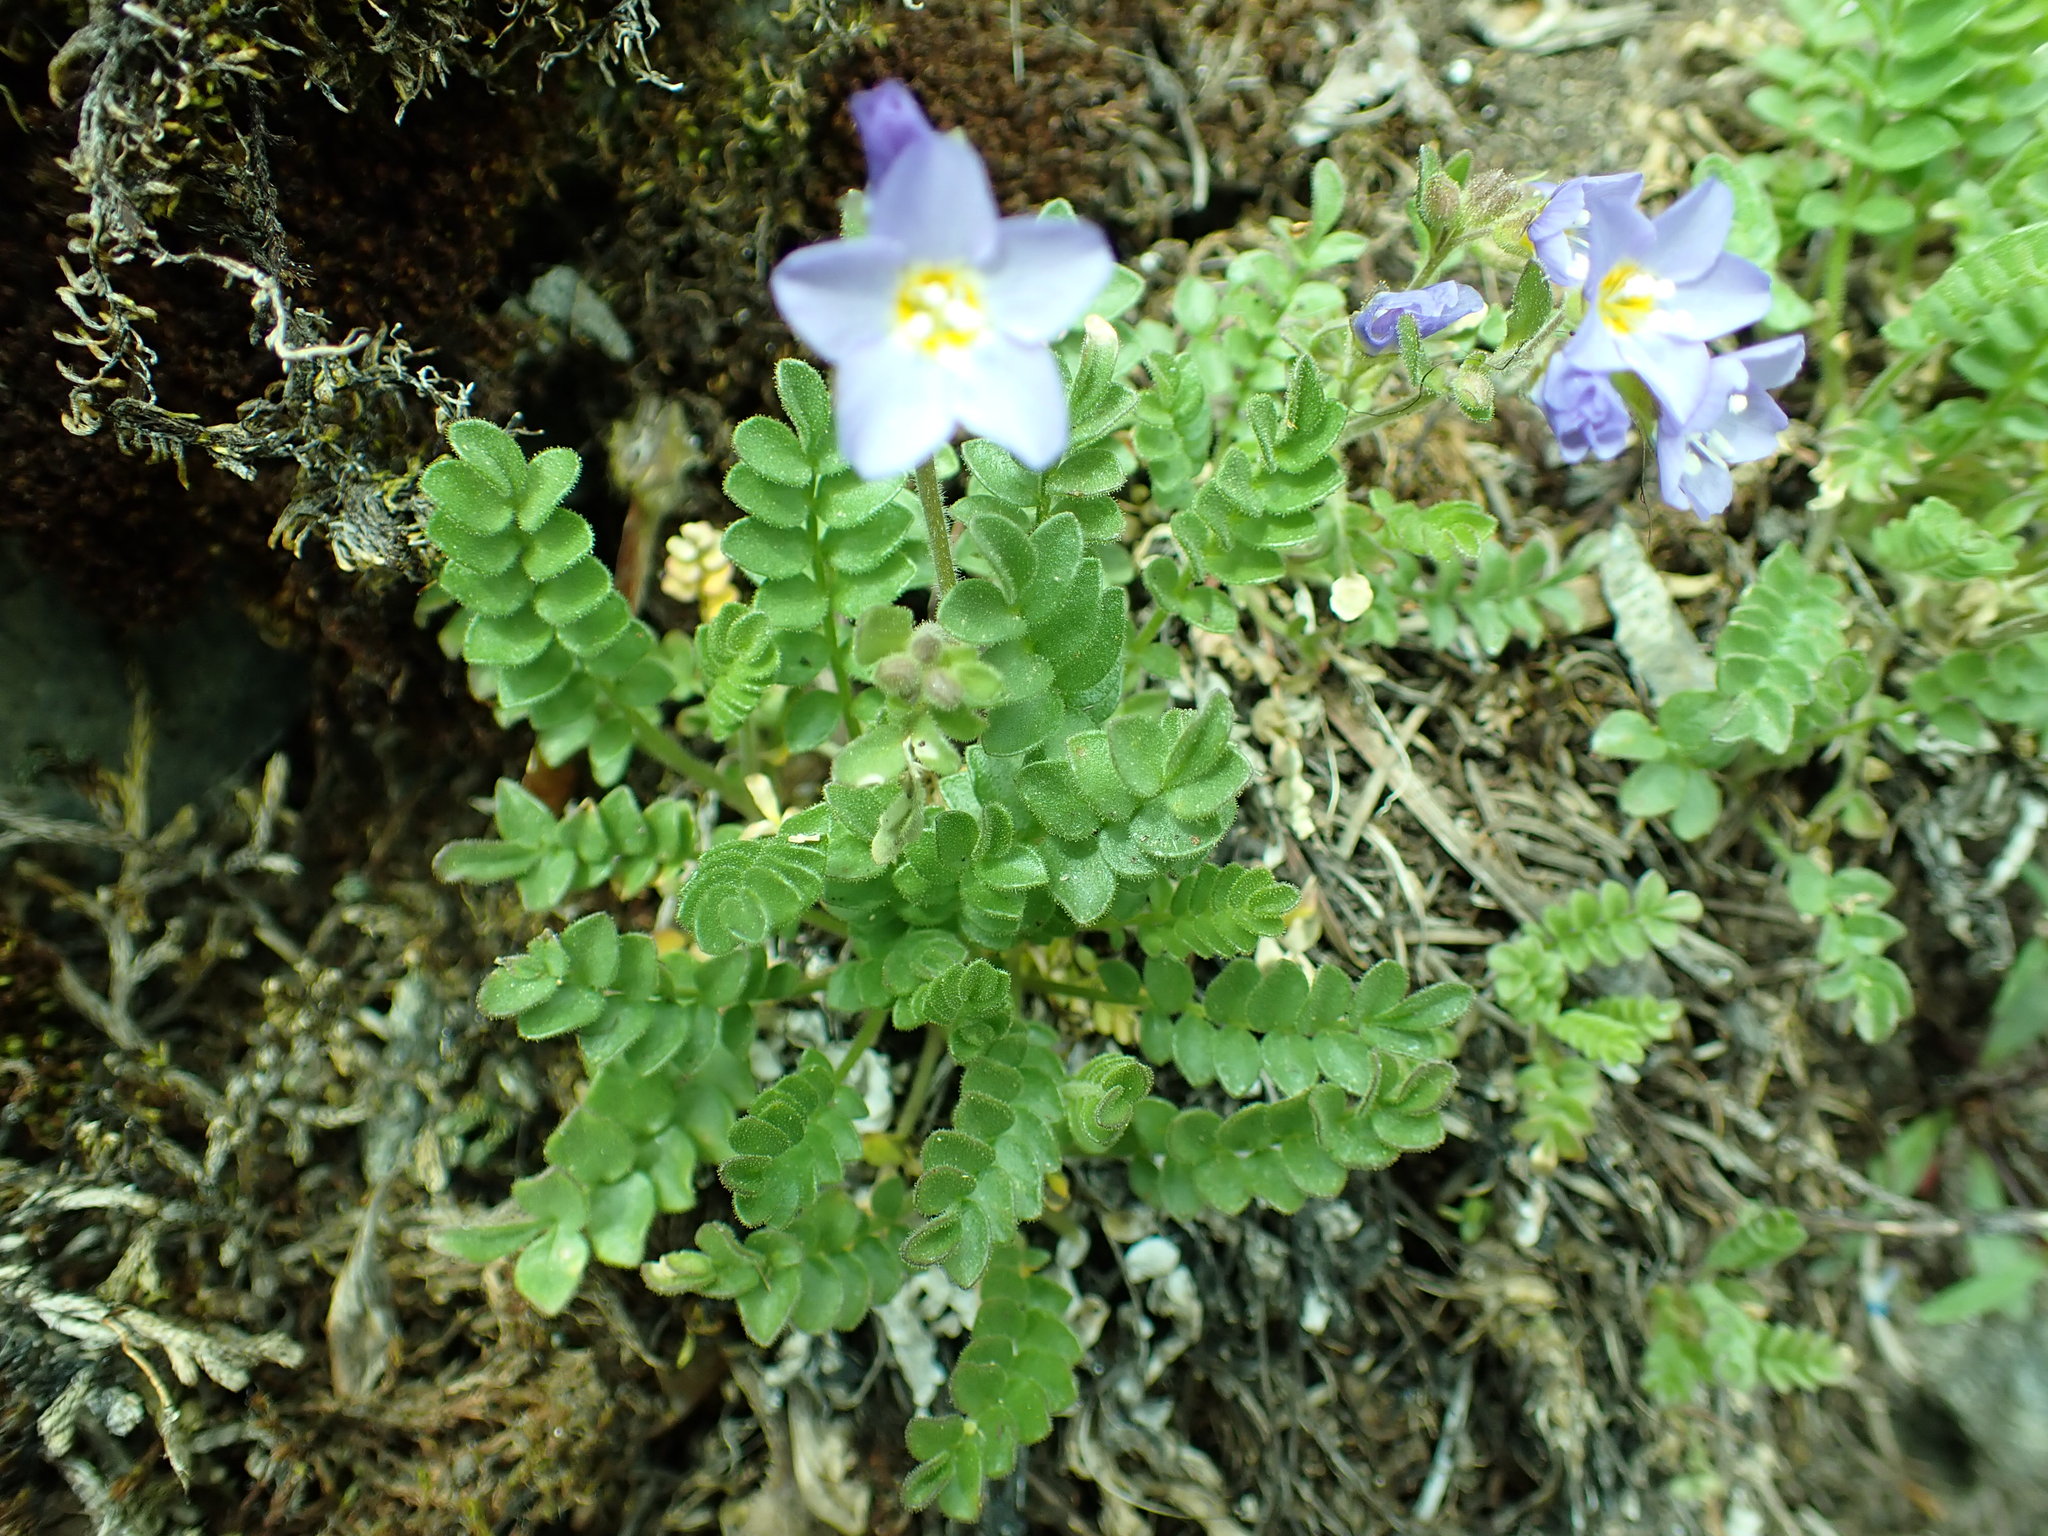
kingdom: Plantae
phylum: Tracheophyta
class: Magnoliopsida
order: Ericales
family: Polemoniaceae
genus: Polemonium
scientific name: Polemonium pulcherrimum
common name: Short jacob's-ladder
